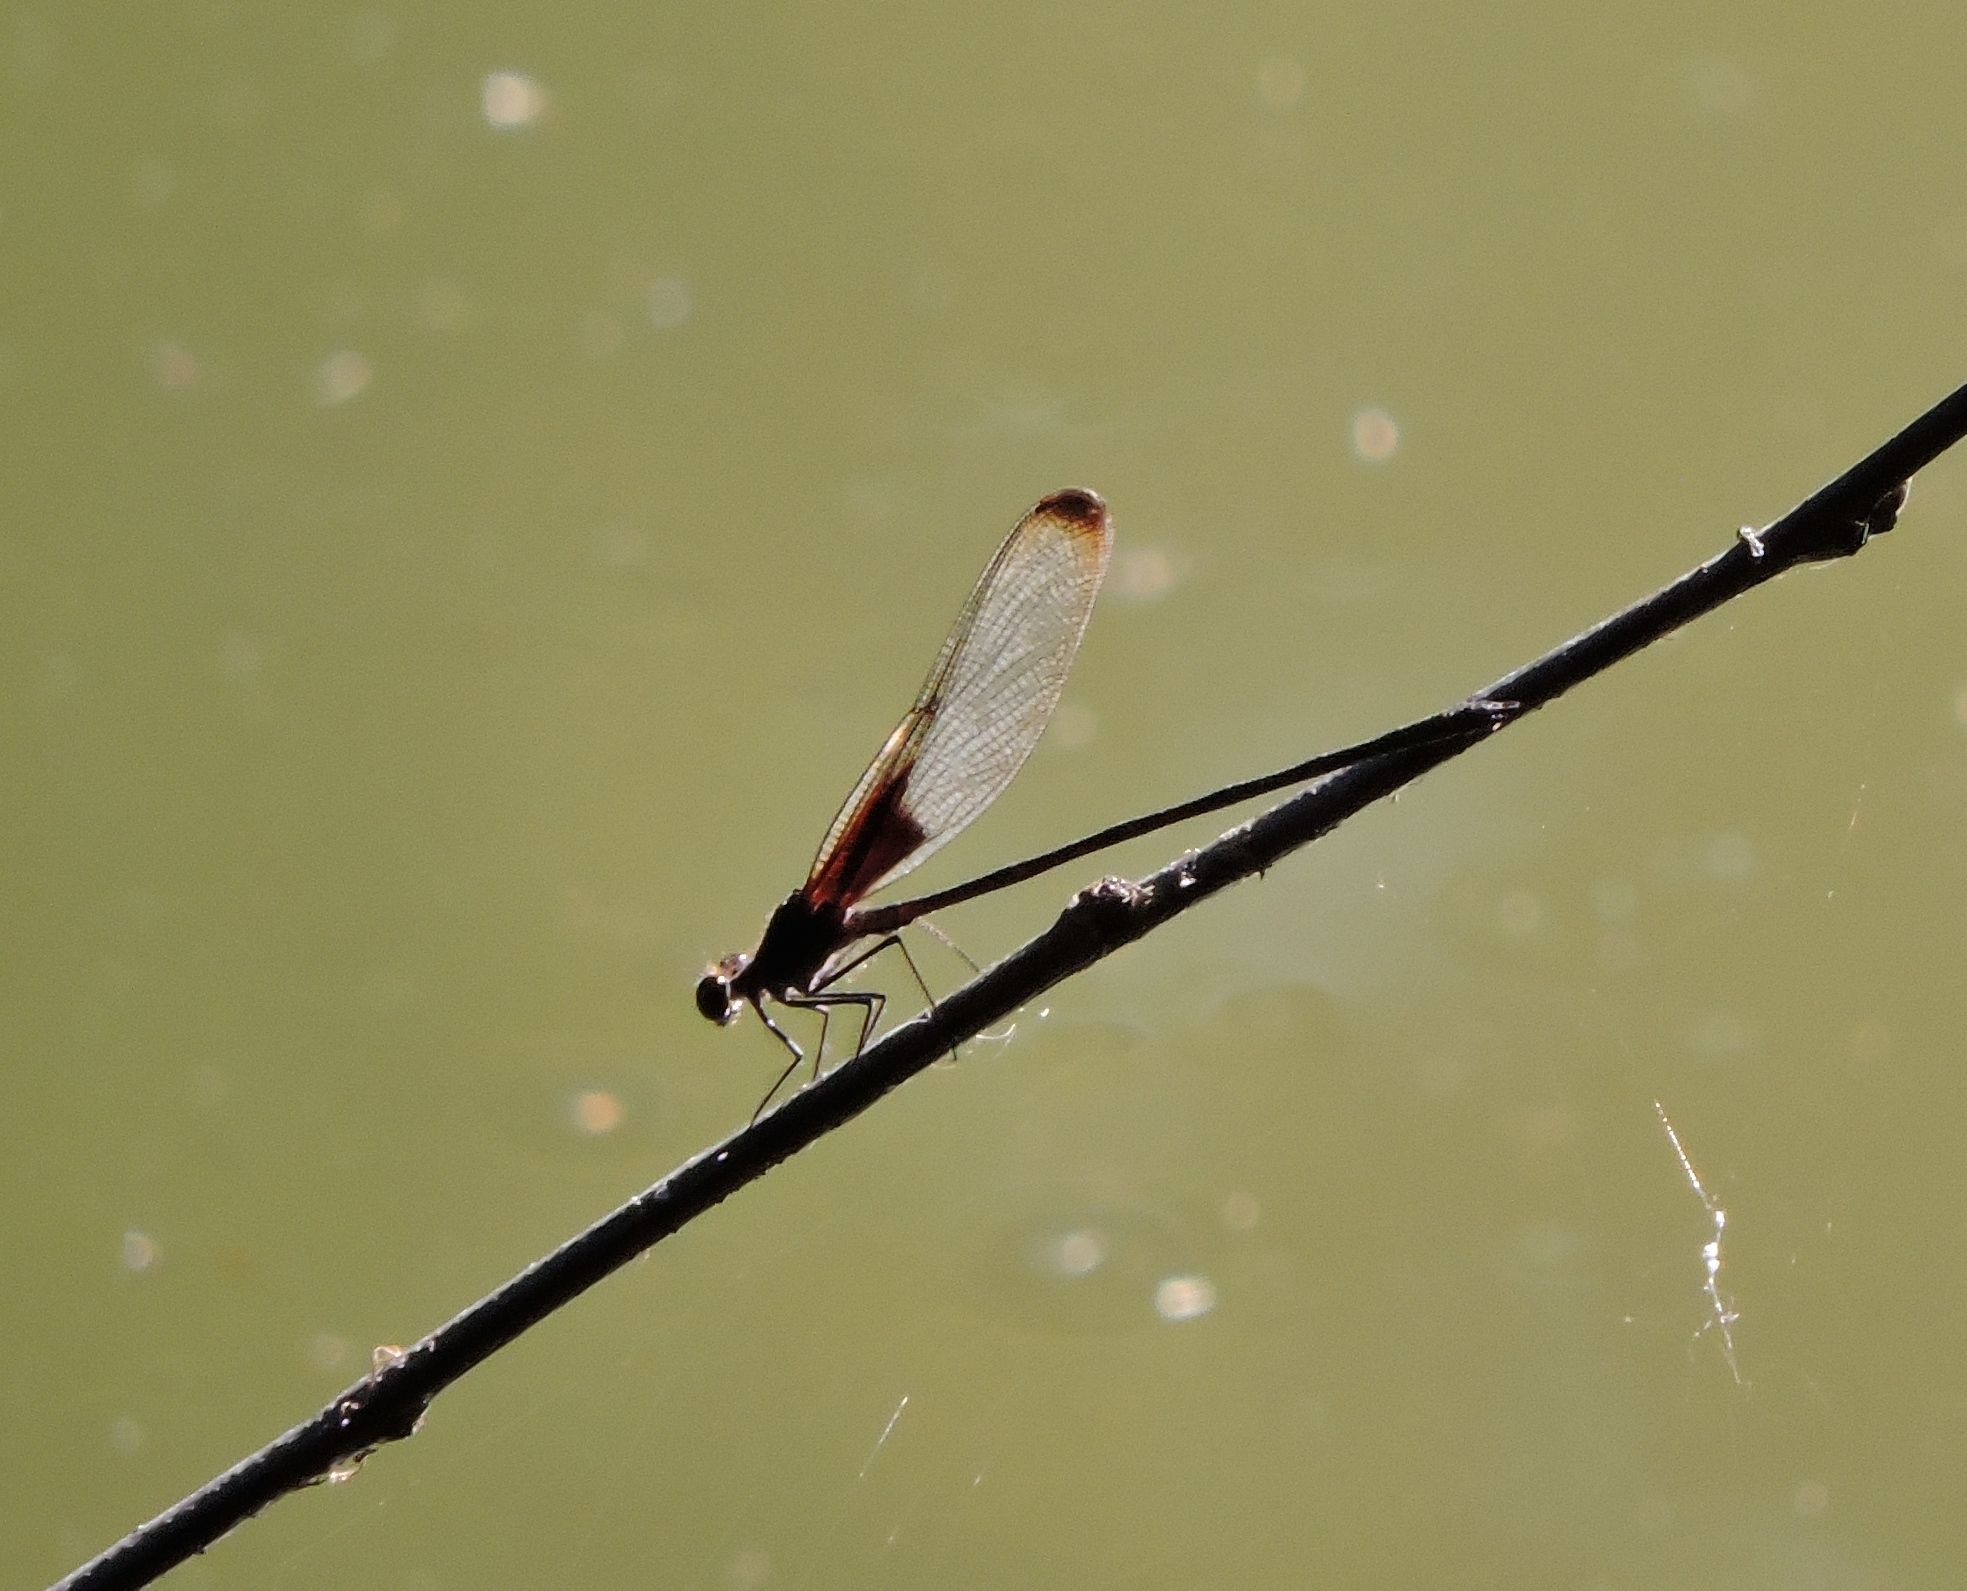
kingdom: Animalia
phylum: Arthropoda
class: Insecta
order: Odonata
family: Calopterygidae
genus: Hetaerina
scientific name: Hetaerina titia
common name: Smoky rubyspot
